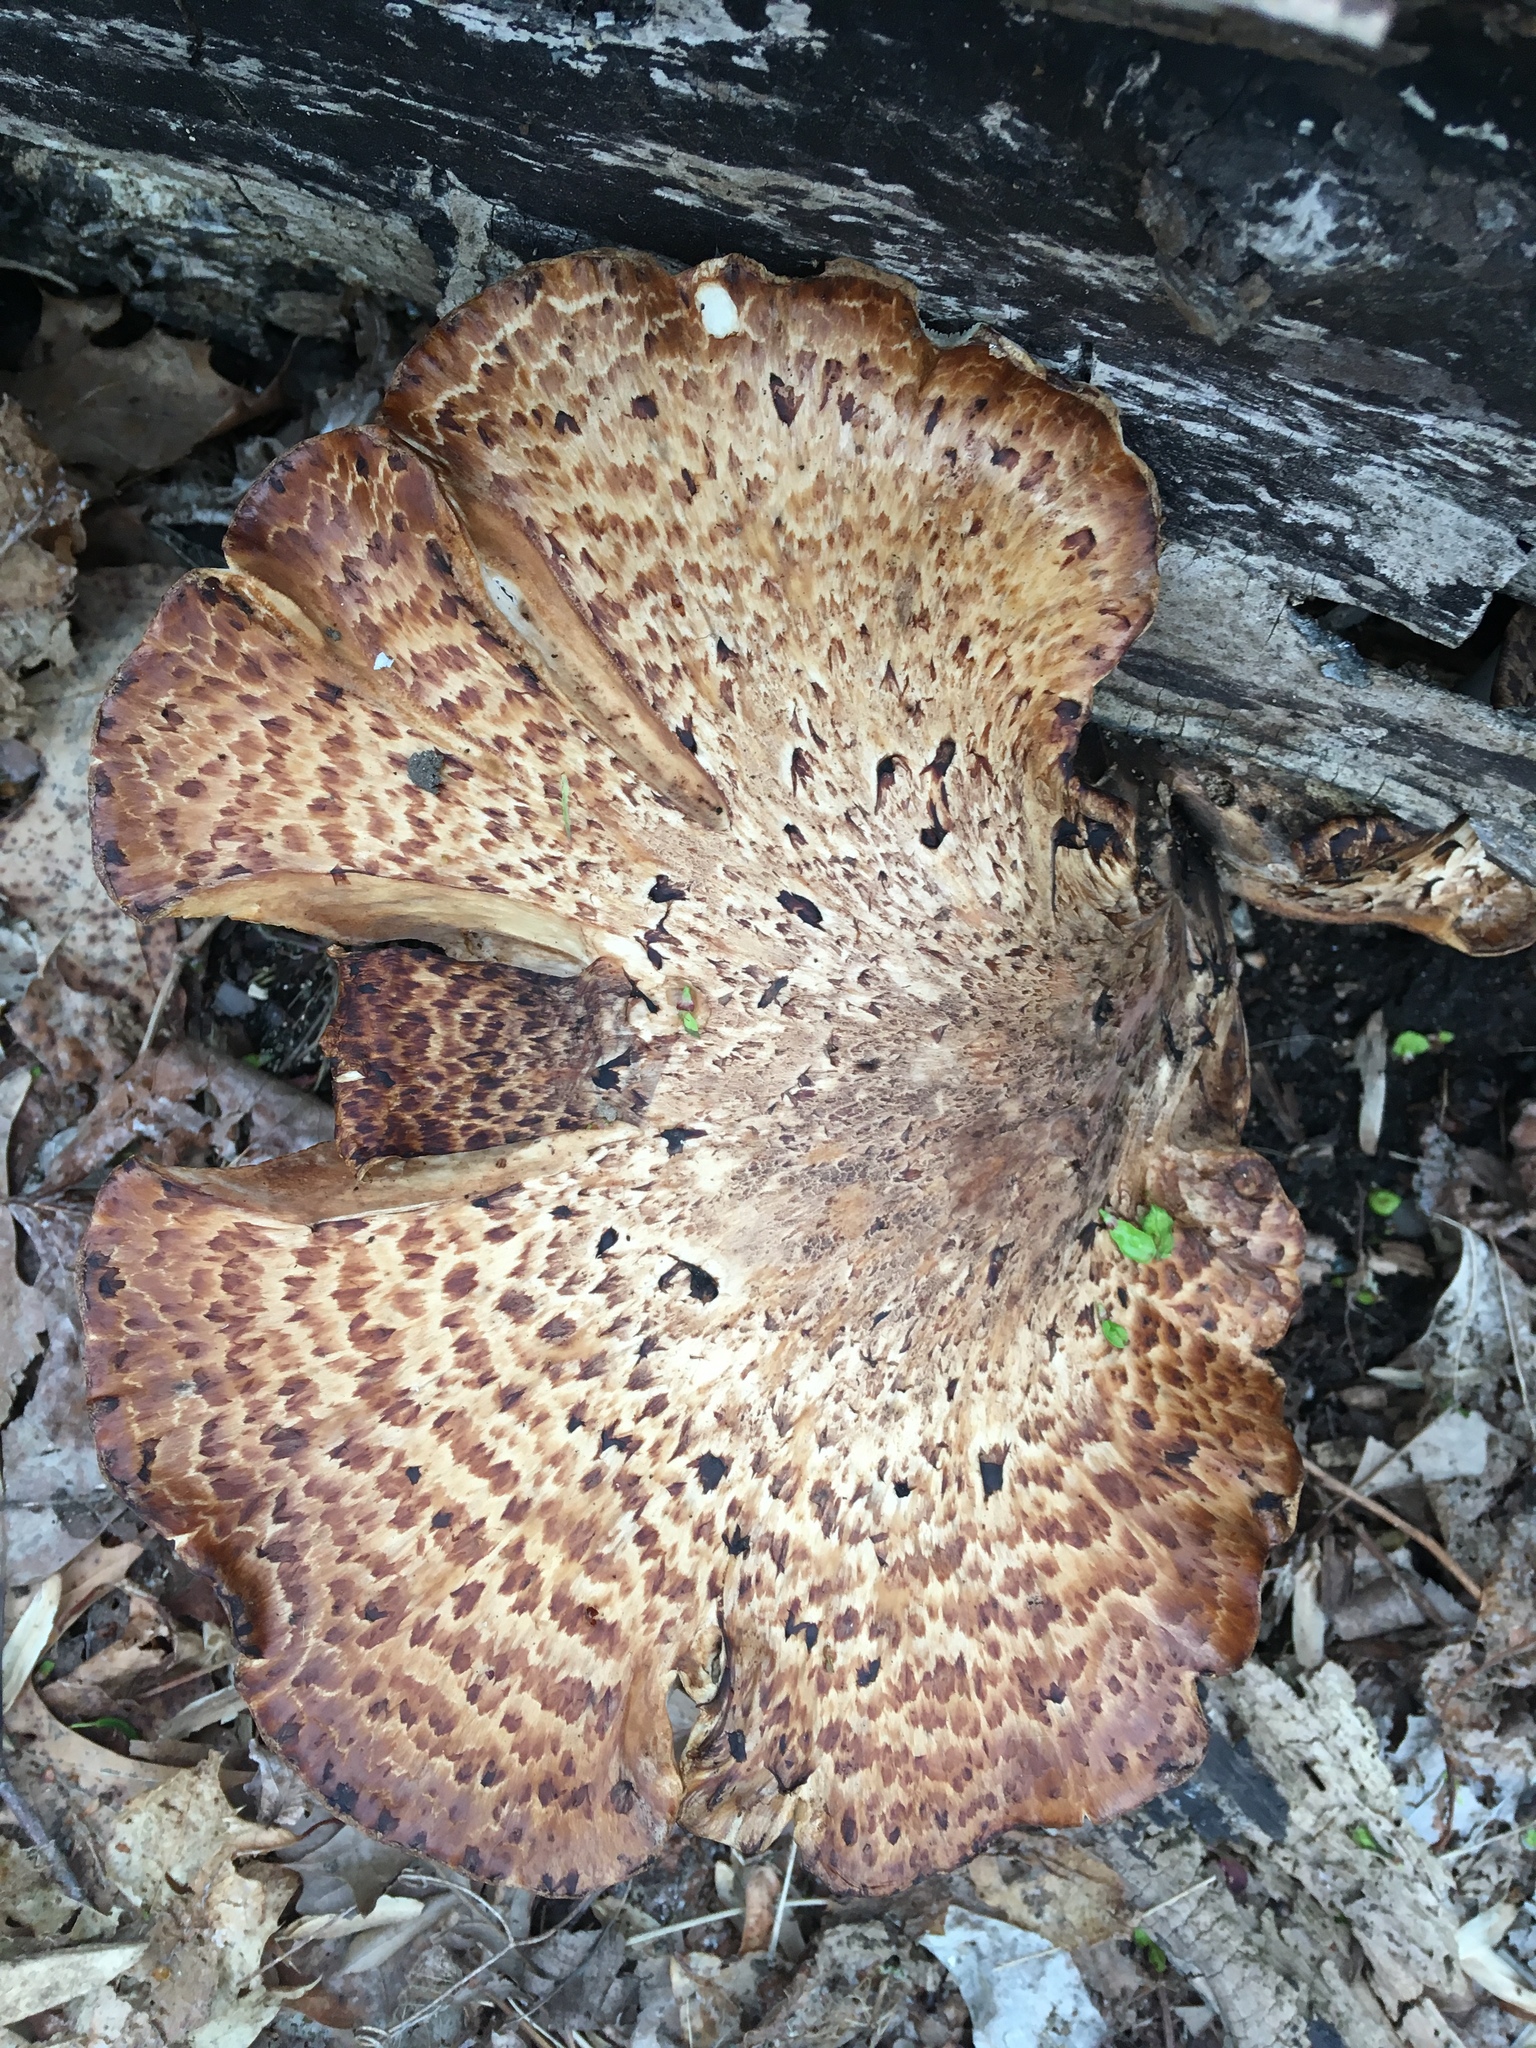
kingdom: Fungi
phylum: Basidiomycota
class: Agaricomycetes
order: Polyporales
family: Polyporaceae
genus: Cerioporus
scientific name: Cerioporus squamosus
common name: Dryad's saddle
